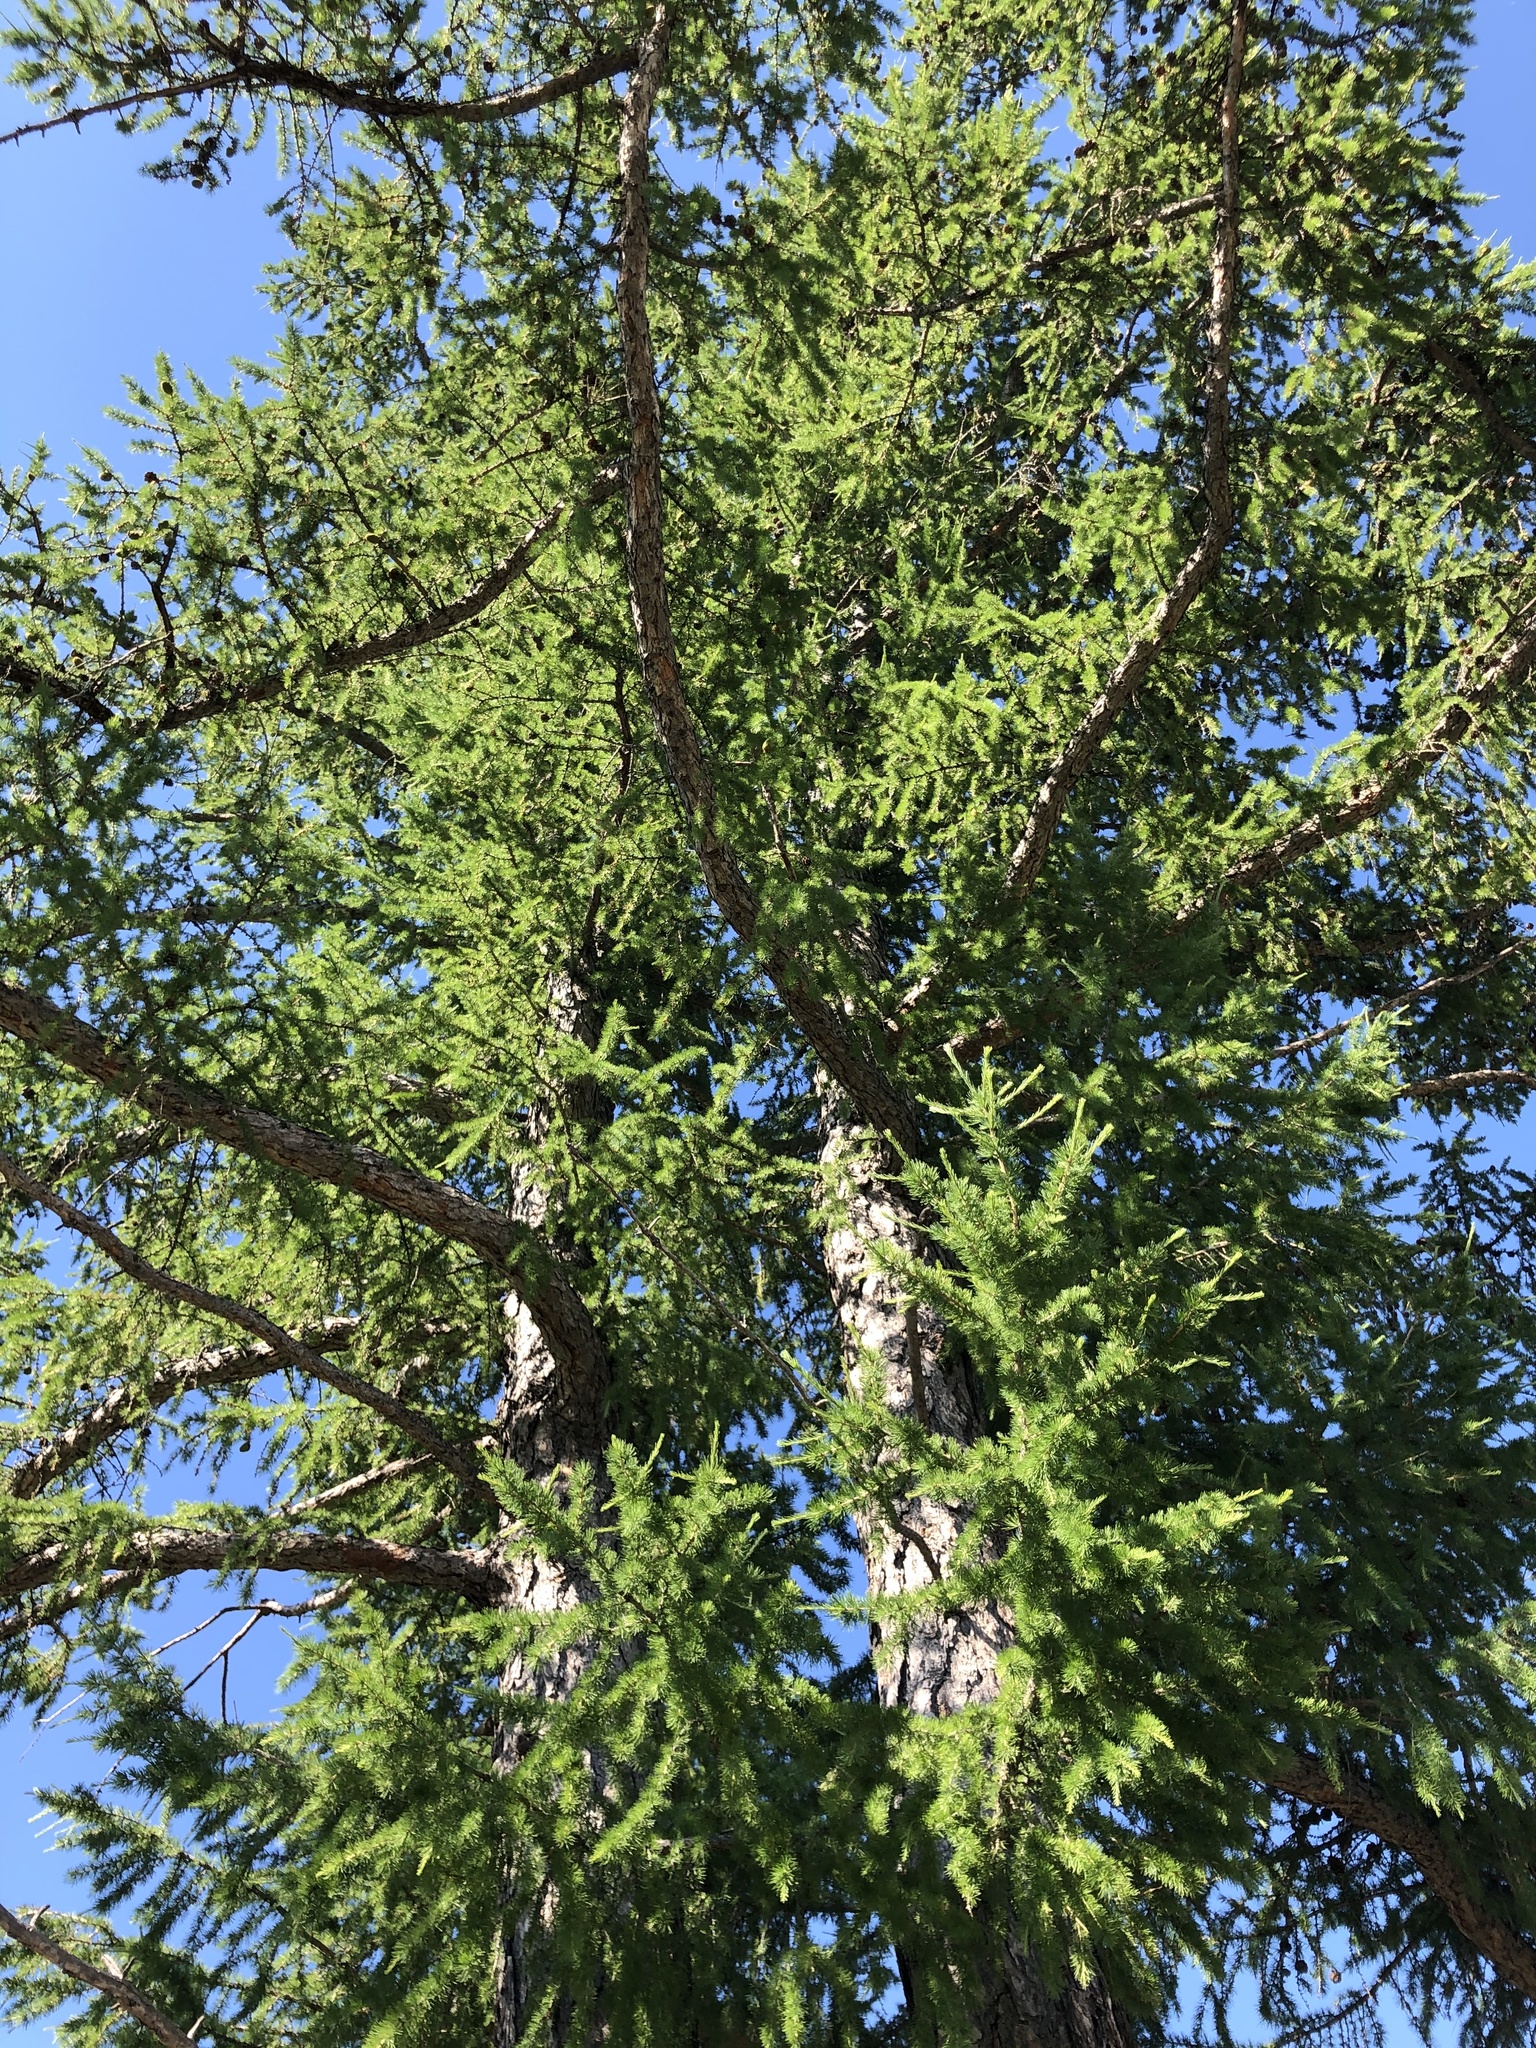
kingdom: Plantae
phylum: Tracheophyta
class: Pinopsida
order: Pinales
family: Pinaceae
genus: Larix
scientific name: Larix sibirica
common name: Siberian larch
